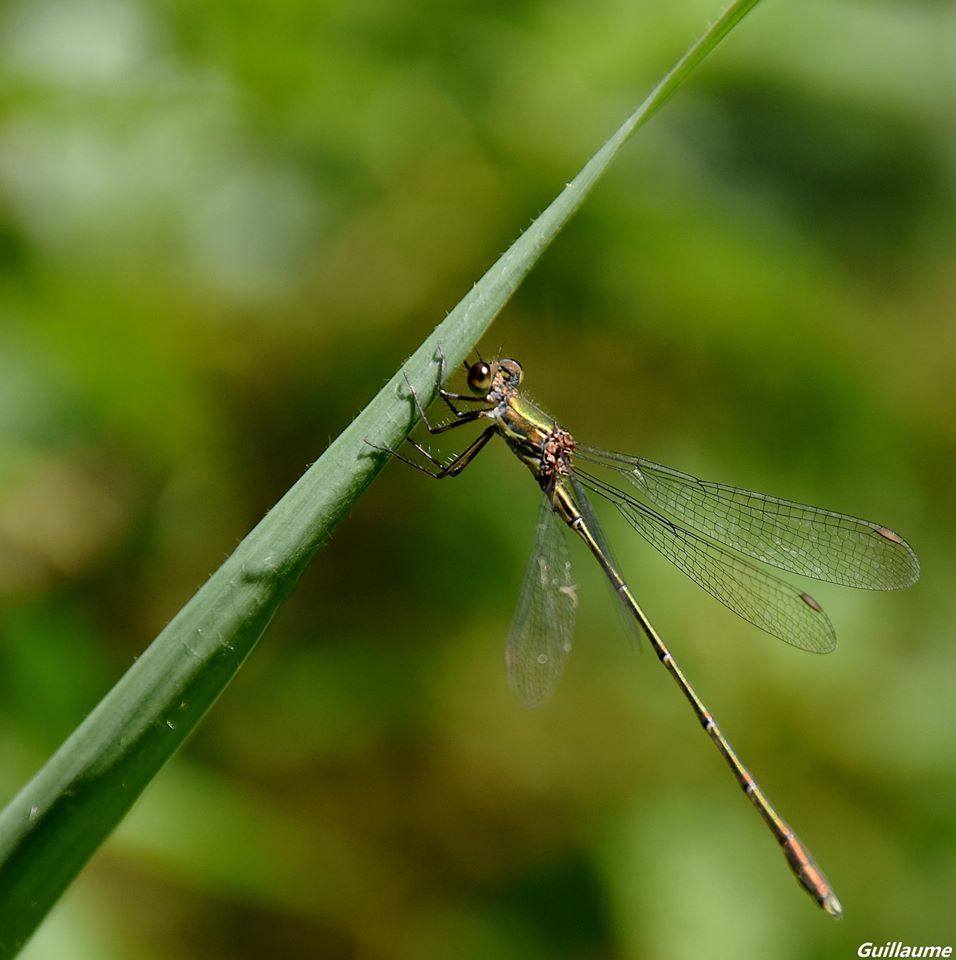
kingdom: Animalia
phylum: Arthropoda
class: Insecta
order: Odonata
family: Lestidae
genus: Chalcolestes
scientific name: Chalcolestes viridis
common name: Green emerald damselfly
